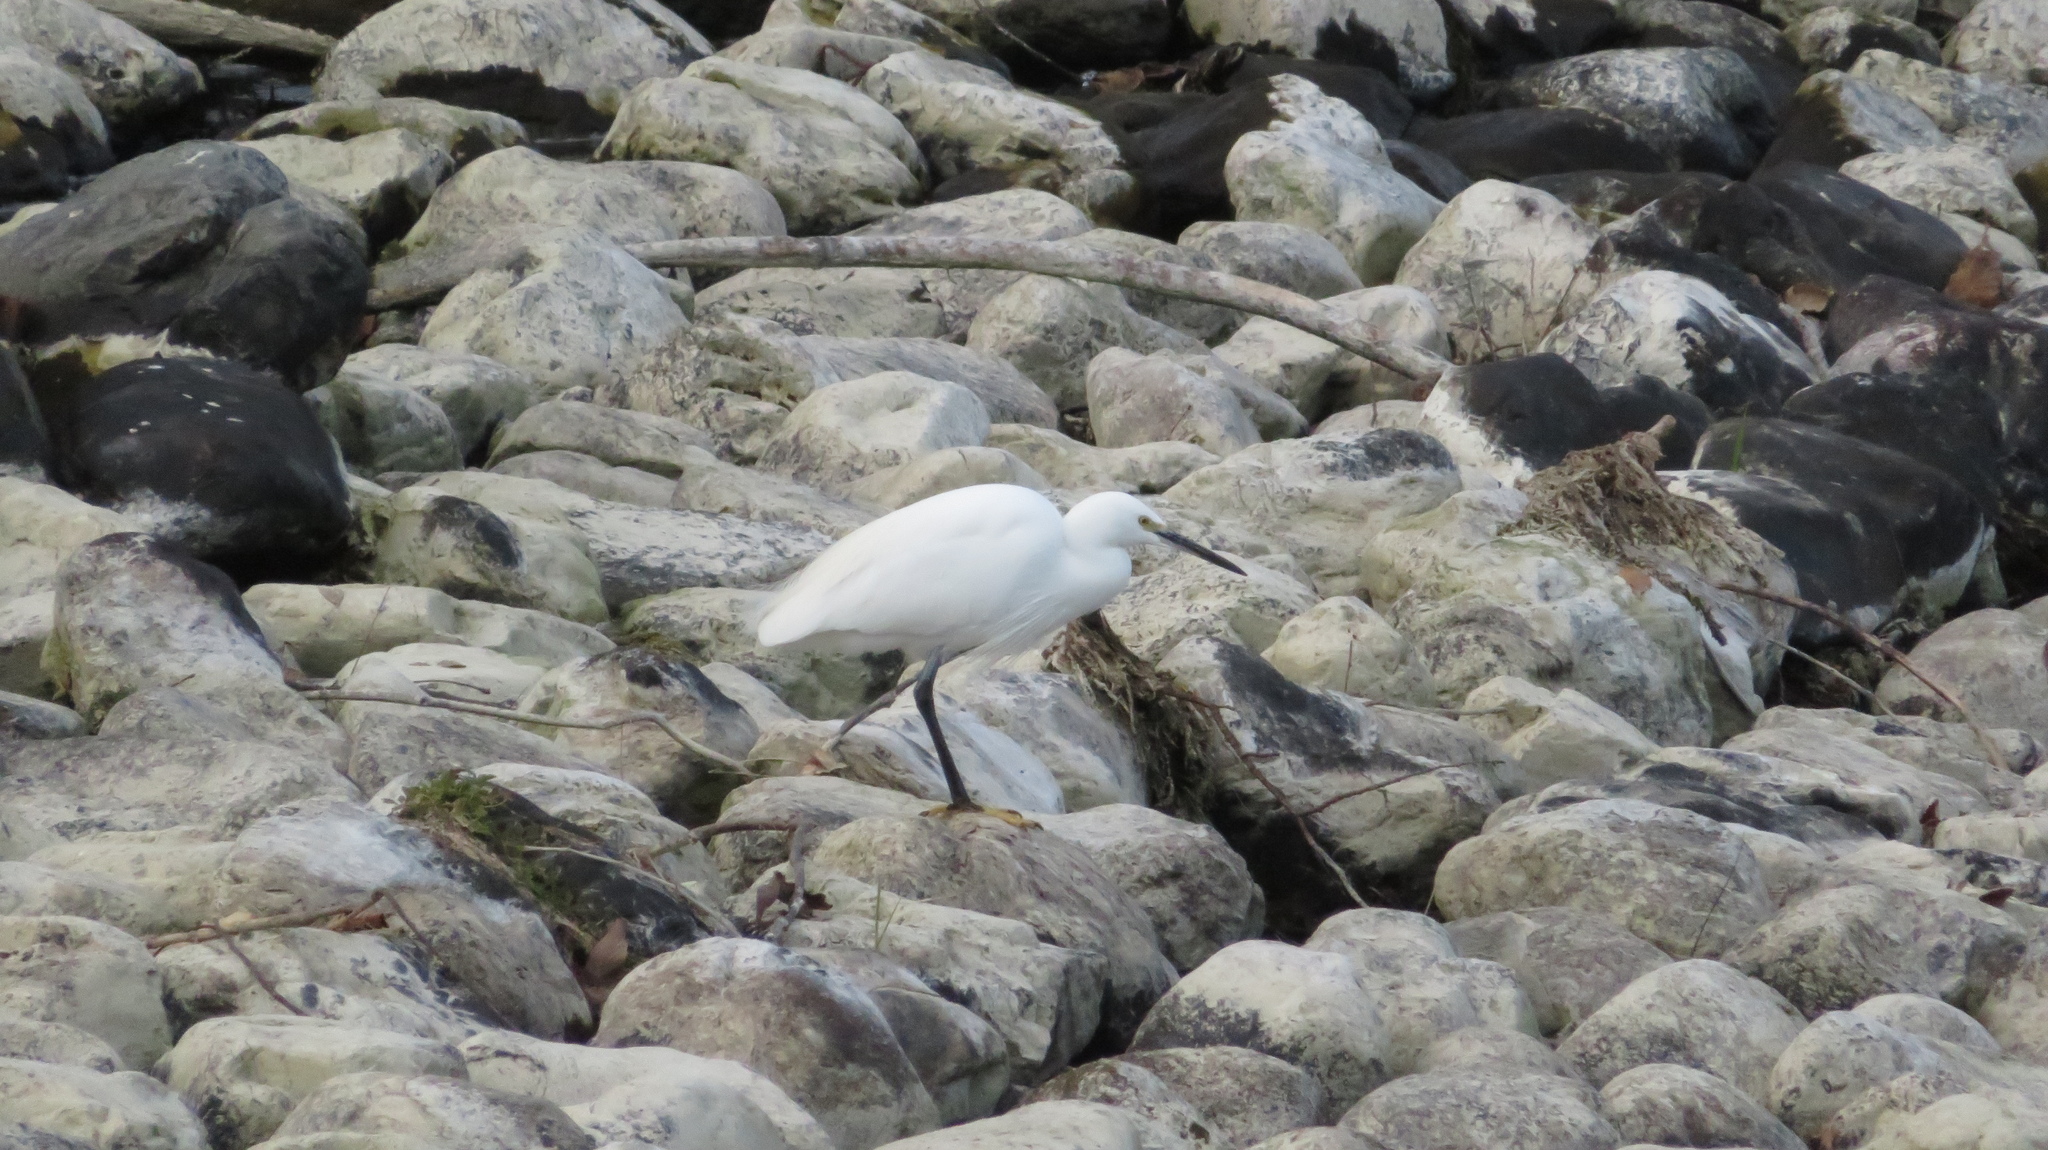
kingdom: Animalia
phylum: Chordata
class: Aves
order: Pelecaniformes
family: Ardeidae
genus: Egretta
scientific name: Egretta garzetta
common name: Little egret
